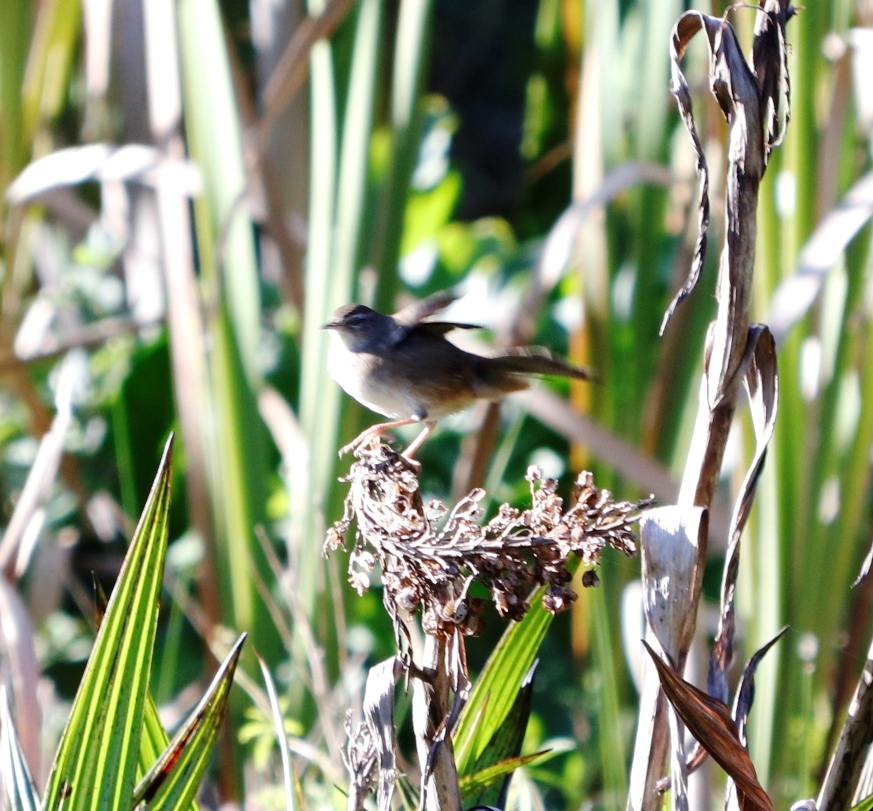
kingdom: Animalia
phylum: Chordata
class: Aves
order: Passeriformes
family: Locustellidae
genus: Bradypterus
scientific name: Bradypterus baboecala
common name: Little rush warbler
